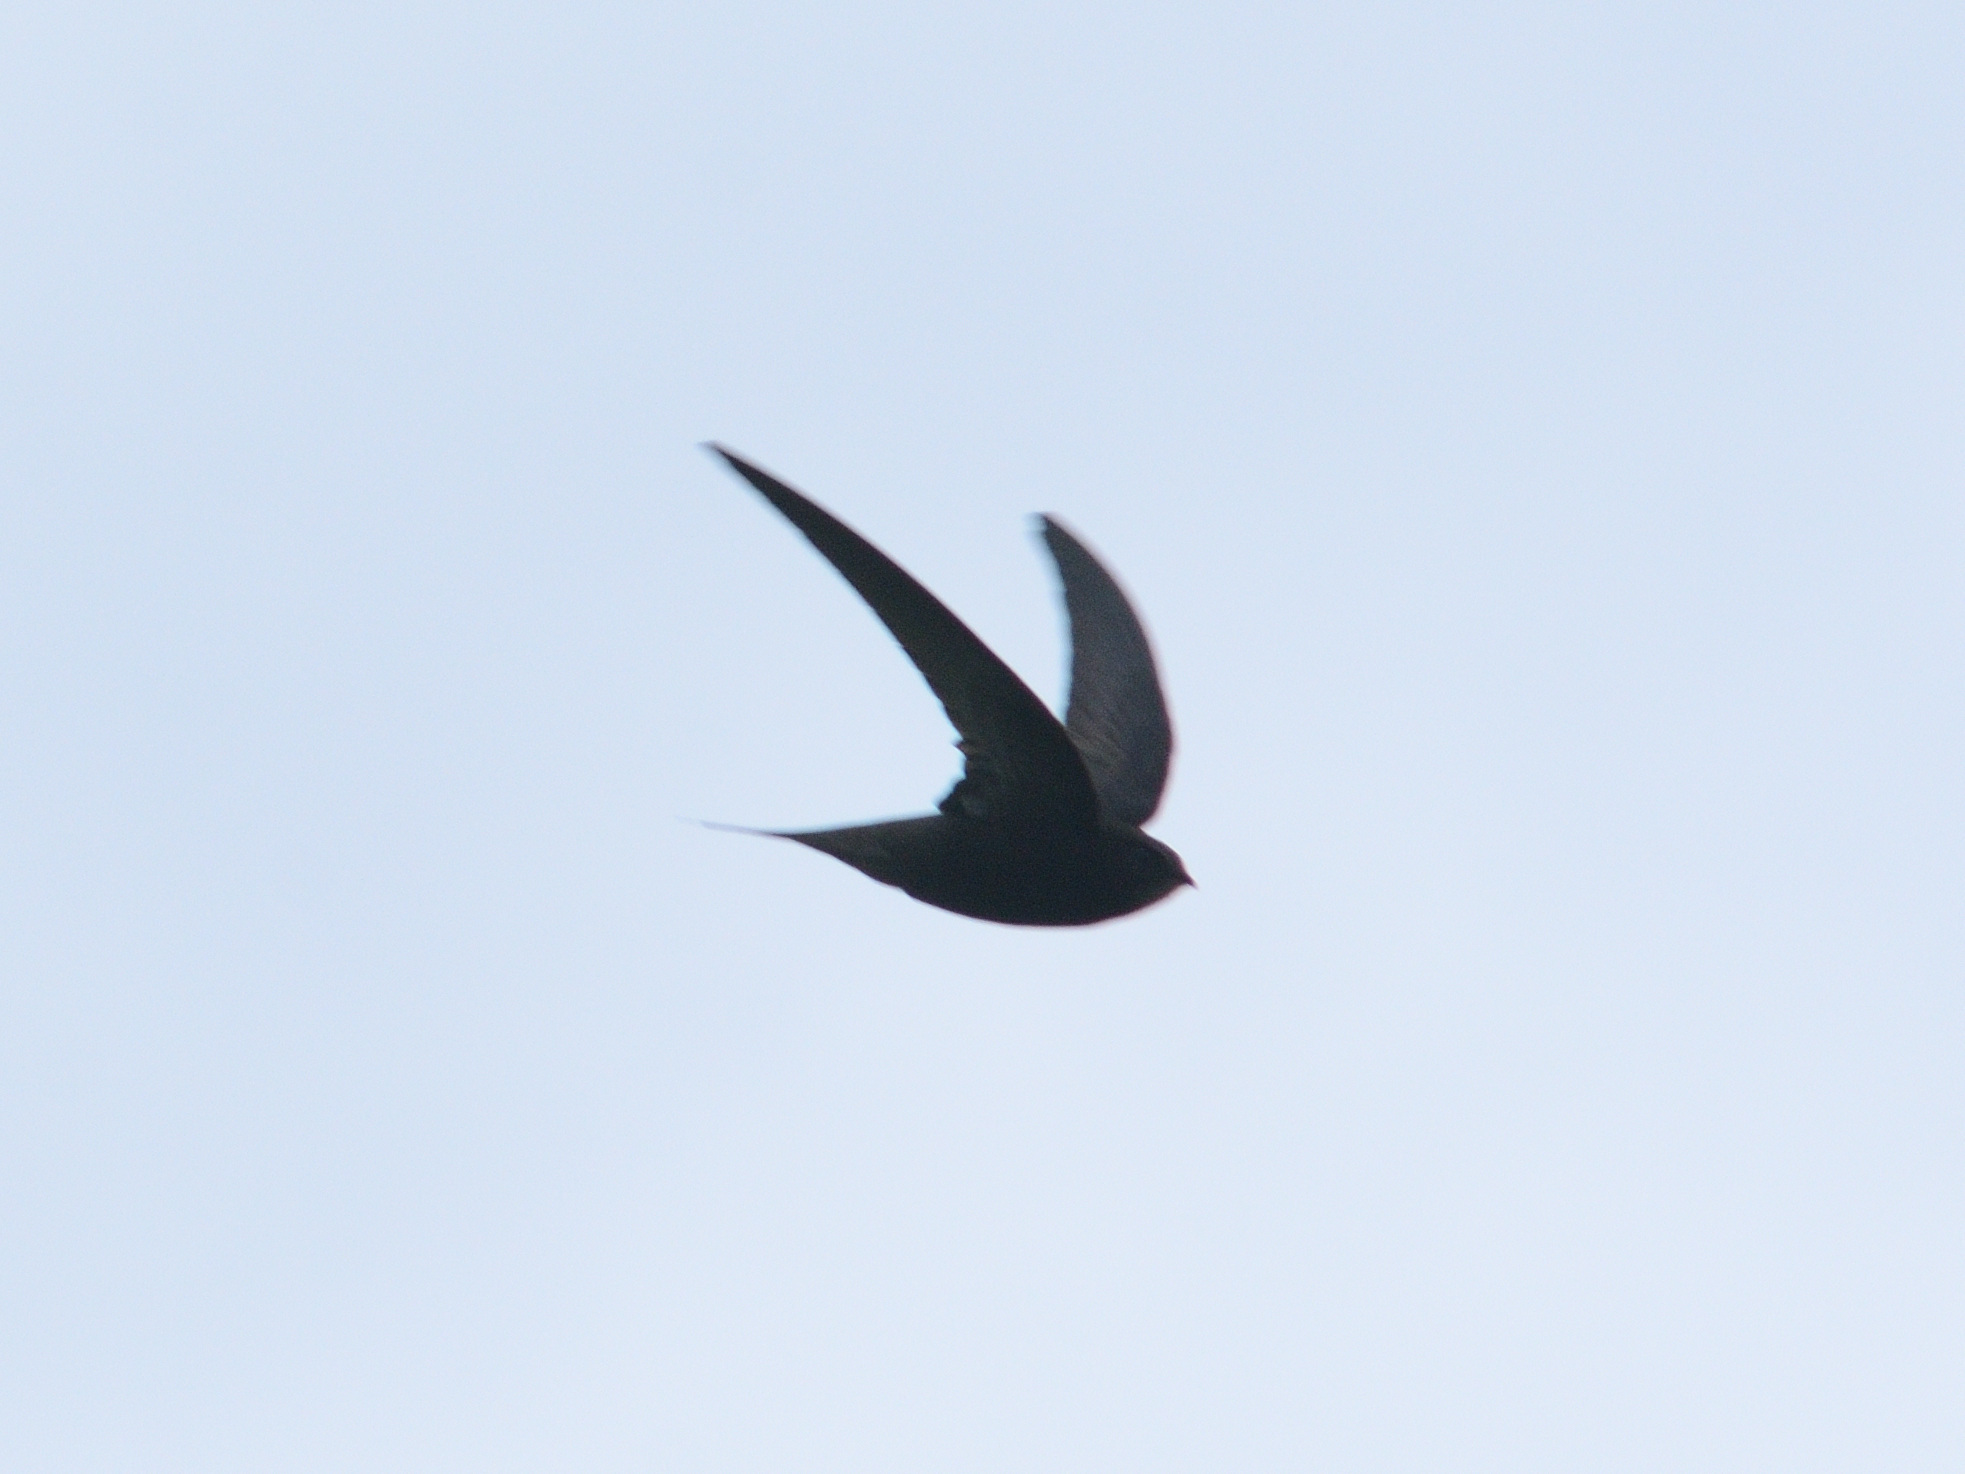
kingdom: Animalia
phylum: Chordata
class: Aves
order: Apodiformes
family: Apodidae
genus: Apus
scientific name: Apus apus
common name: Common swift
